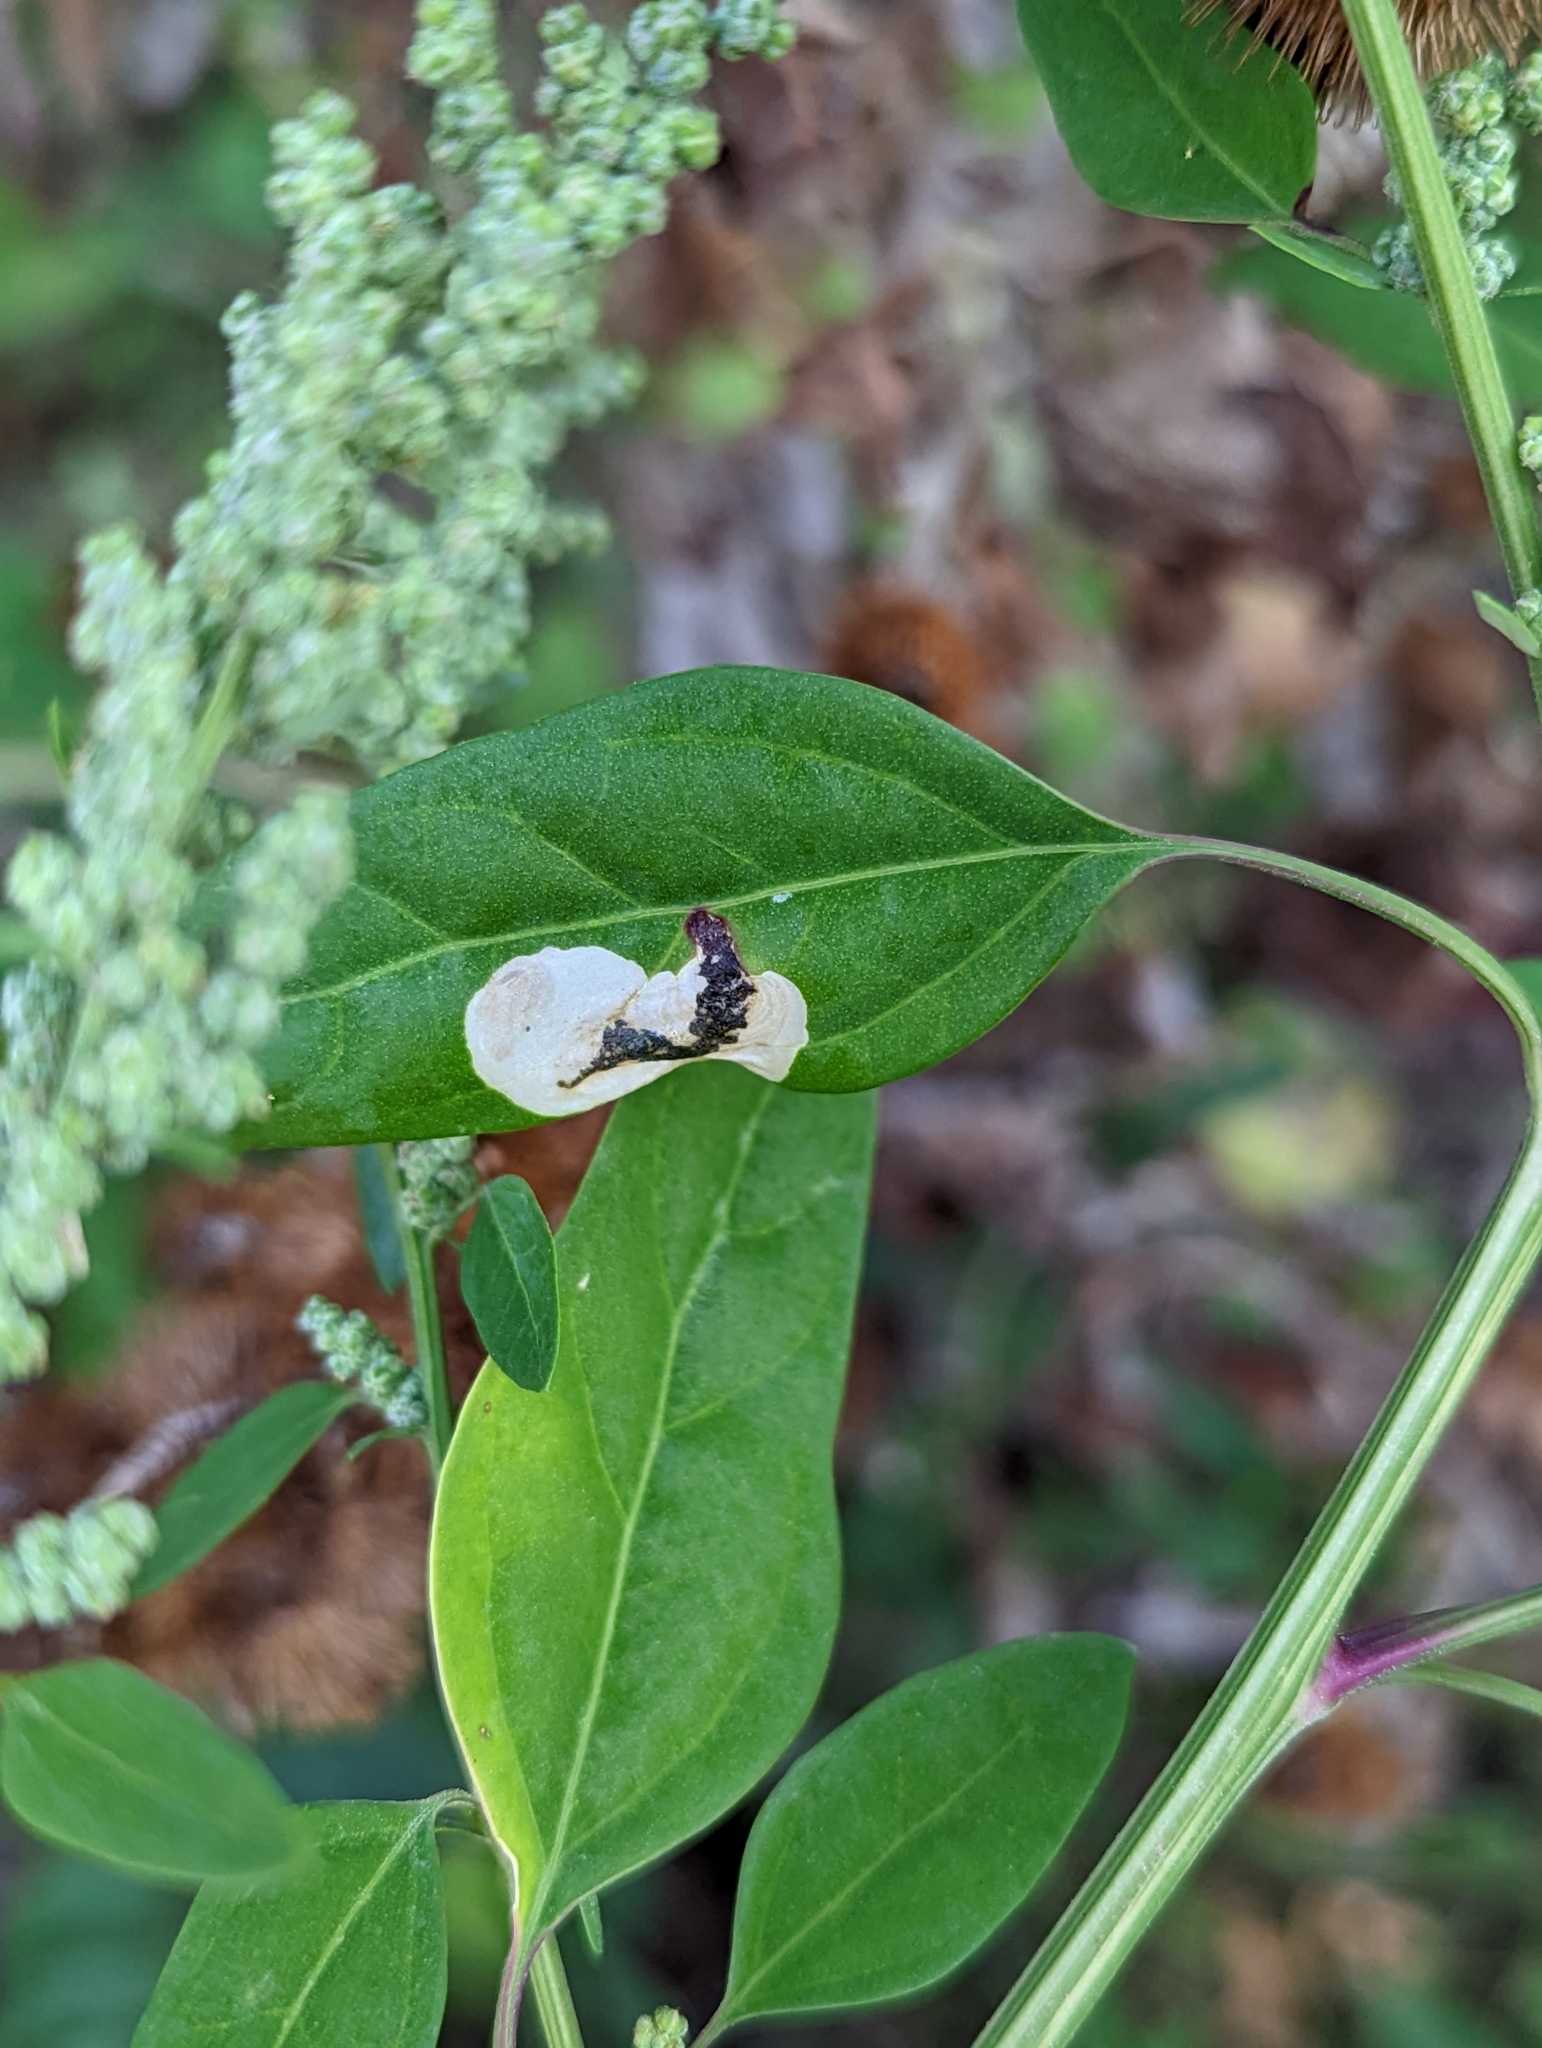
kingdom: Animalia
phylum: Arthropoda
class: Insecta
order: Lepidoptera
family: Gelechiidae
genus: Chrysoesthia
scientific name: Chrysoesthia sexguttella
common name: Moth
